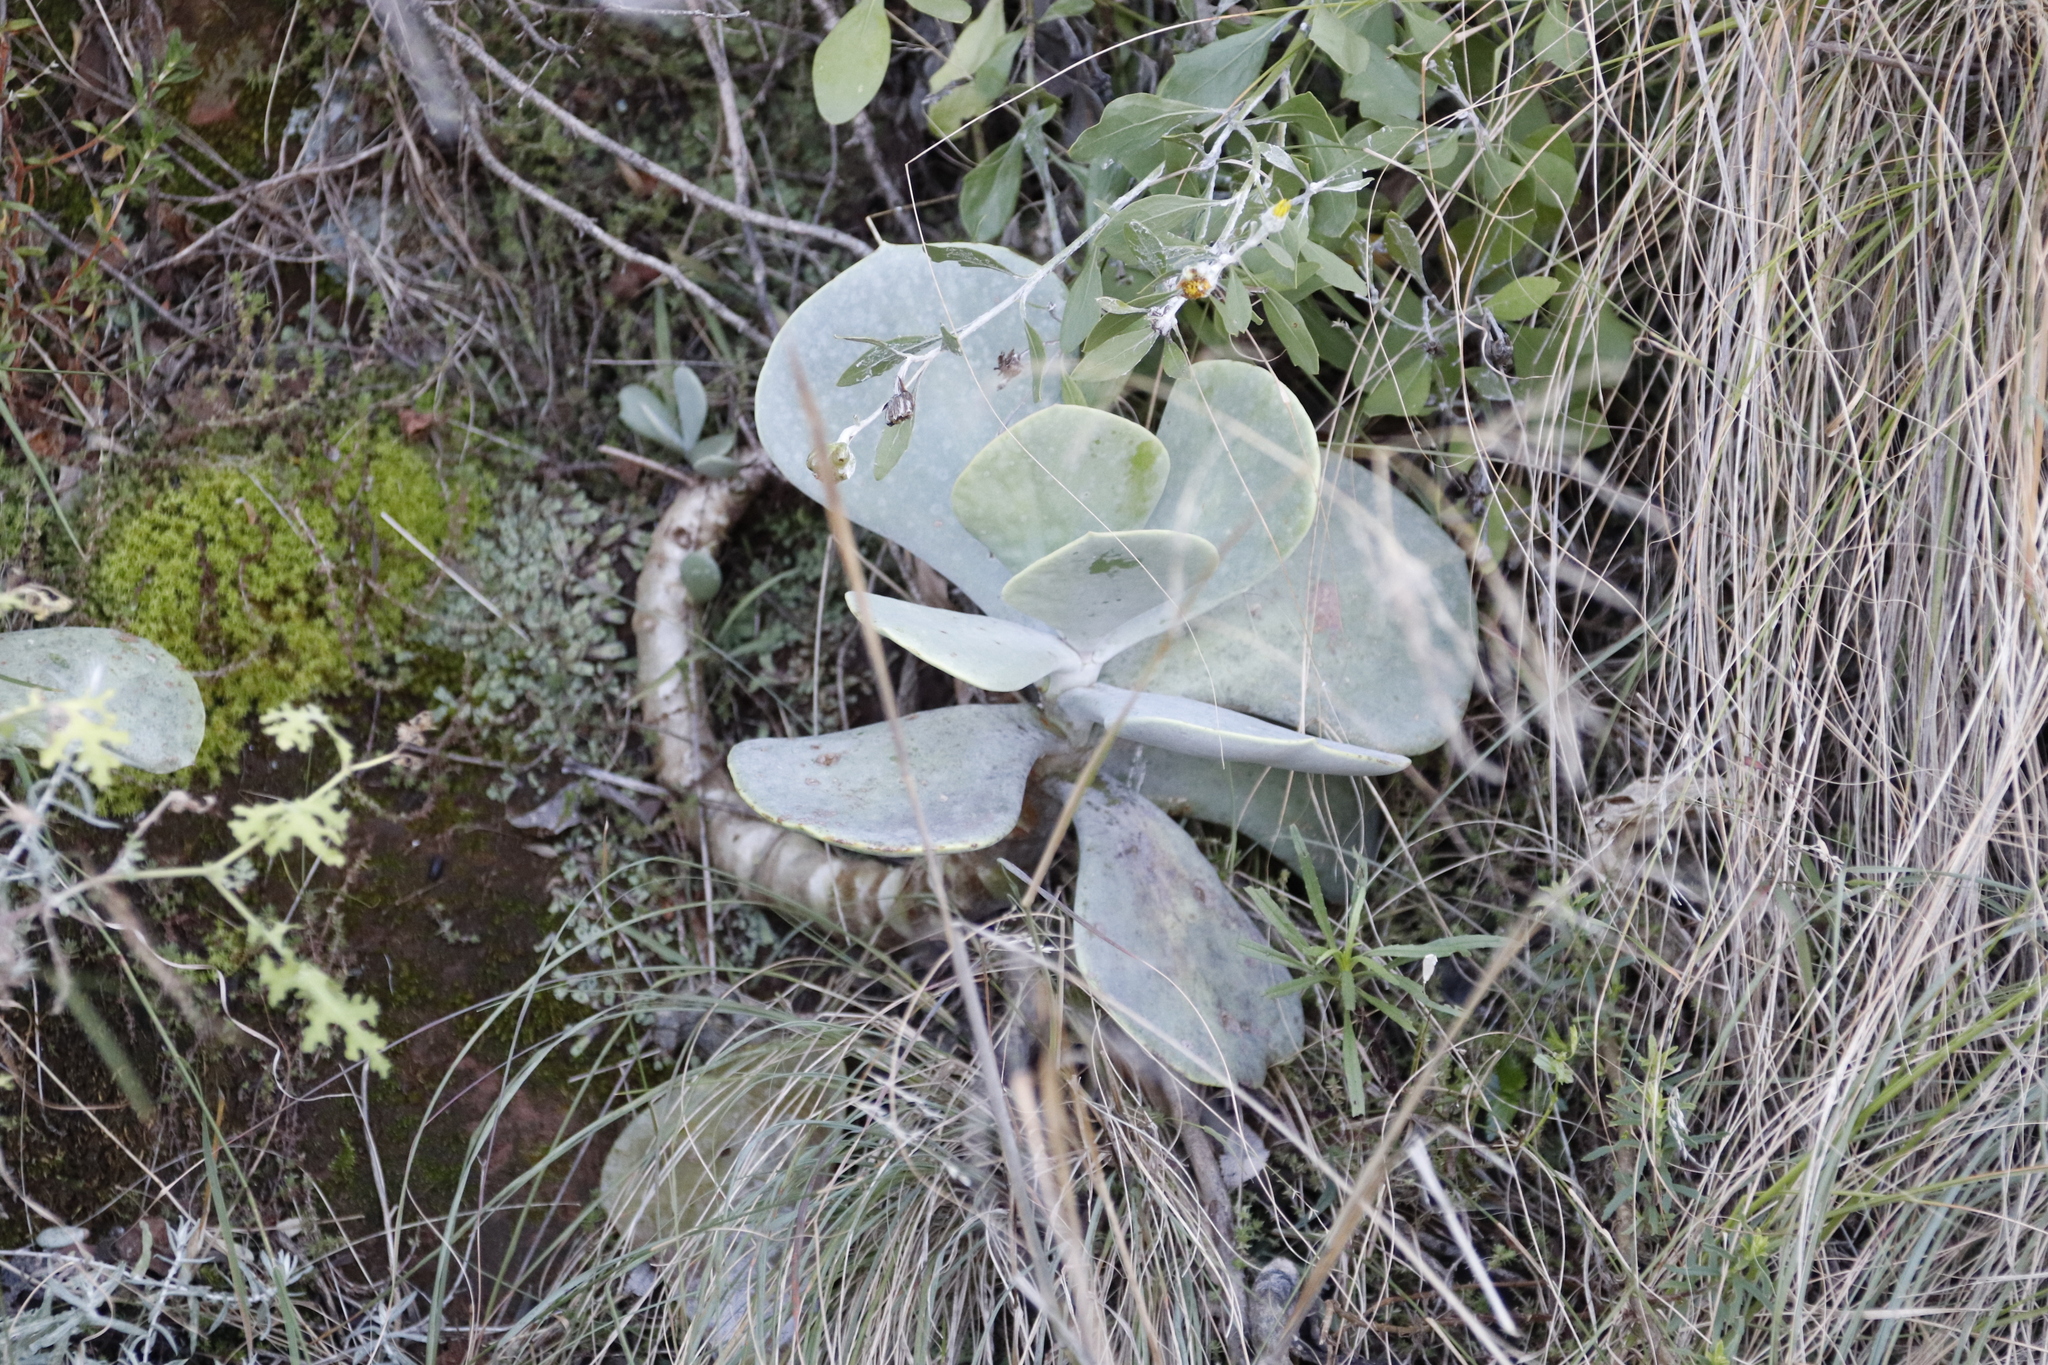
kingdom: Plantae
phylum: Tracheophyta
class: Magnoliopsida
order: Saxifragales
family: Crassulaceae
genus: Cotyledon
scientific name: Cotyledon orbiculata
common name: Pig's ear
